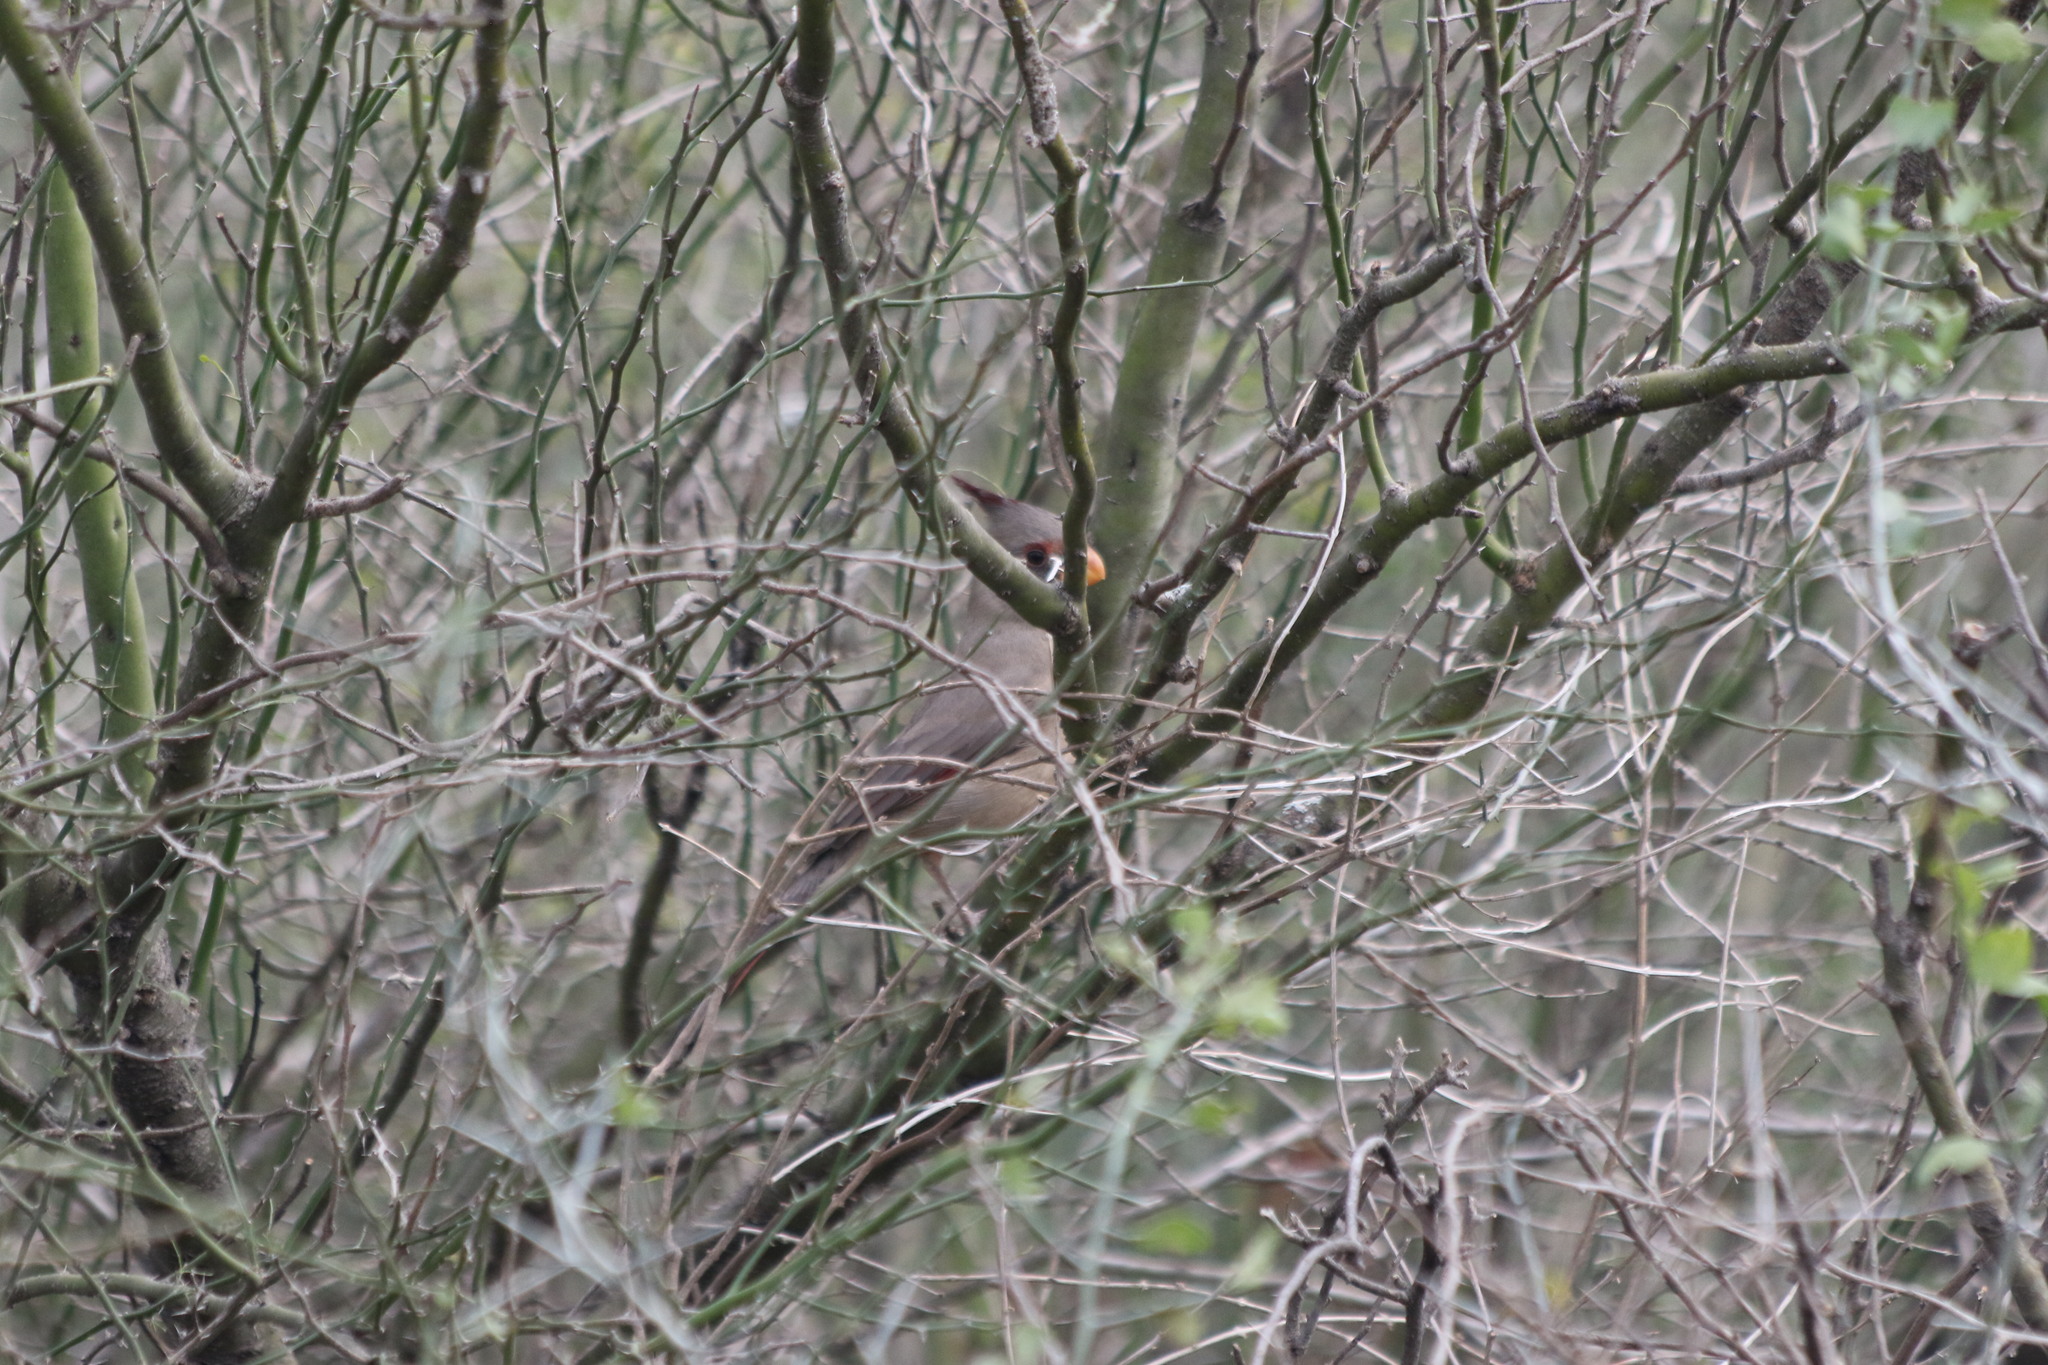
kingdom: Animalia
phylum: Chordata
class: Aves
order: Passeriformes
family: Cardinalidae
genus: Cardinalis
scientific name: Cardinalis sinuatus
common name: Pyrrhuloxia
